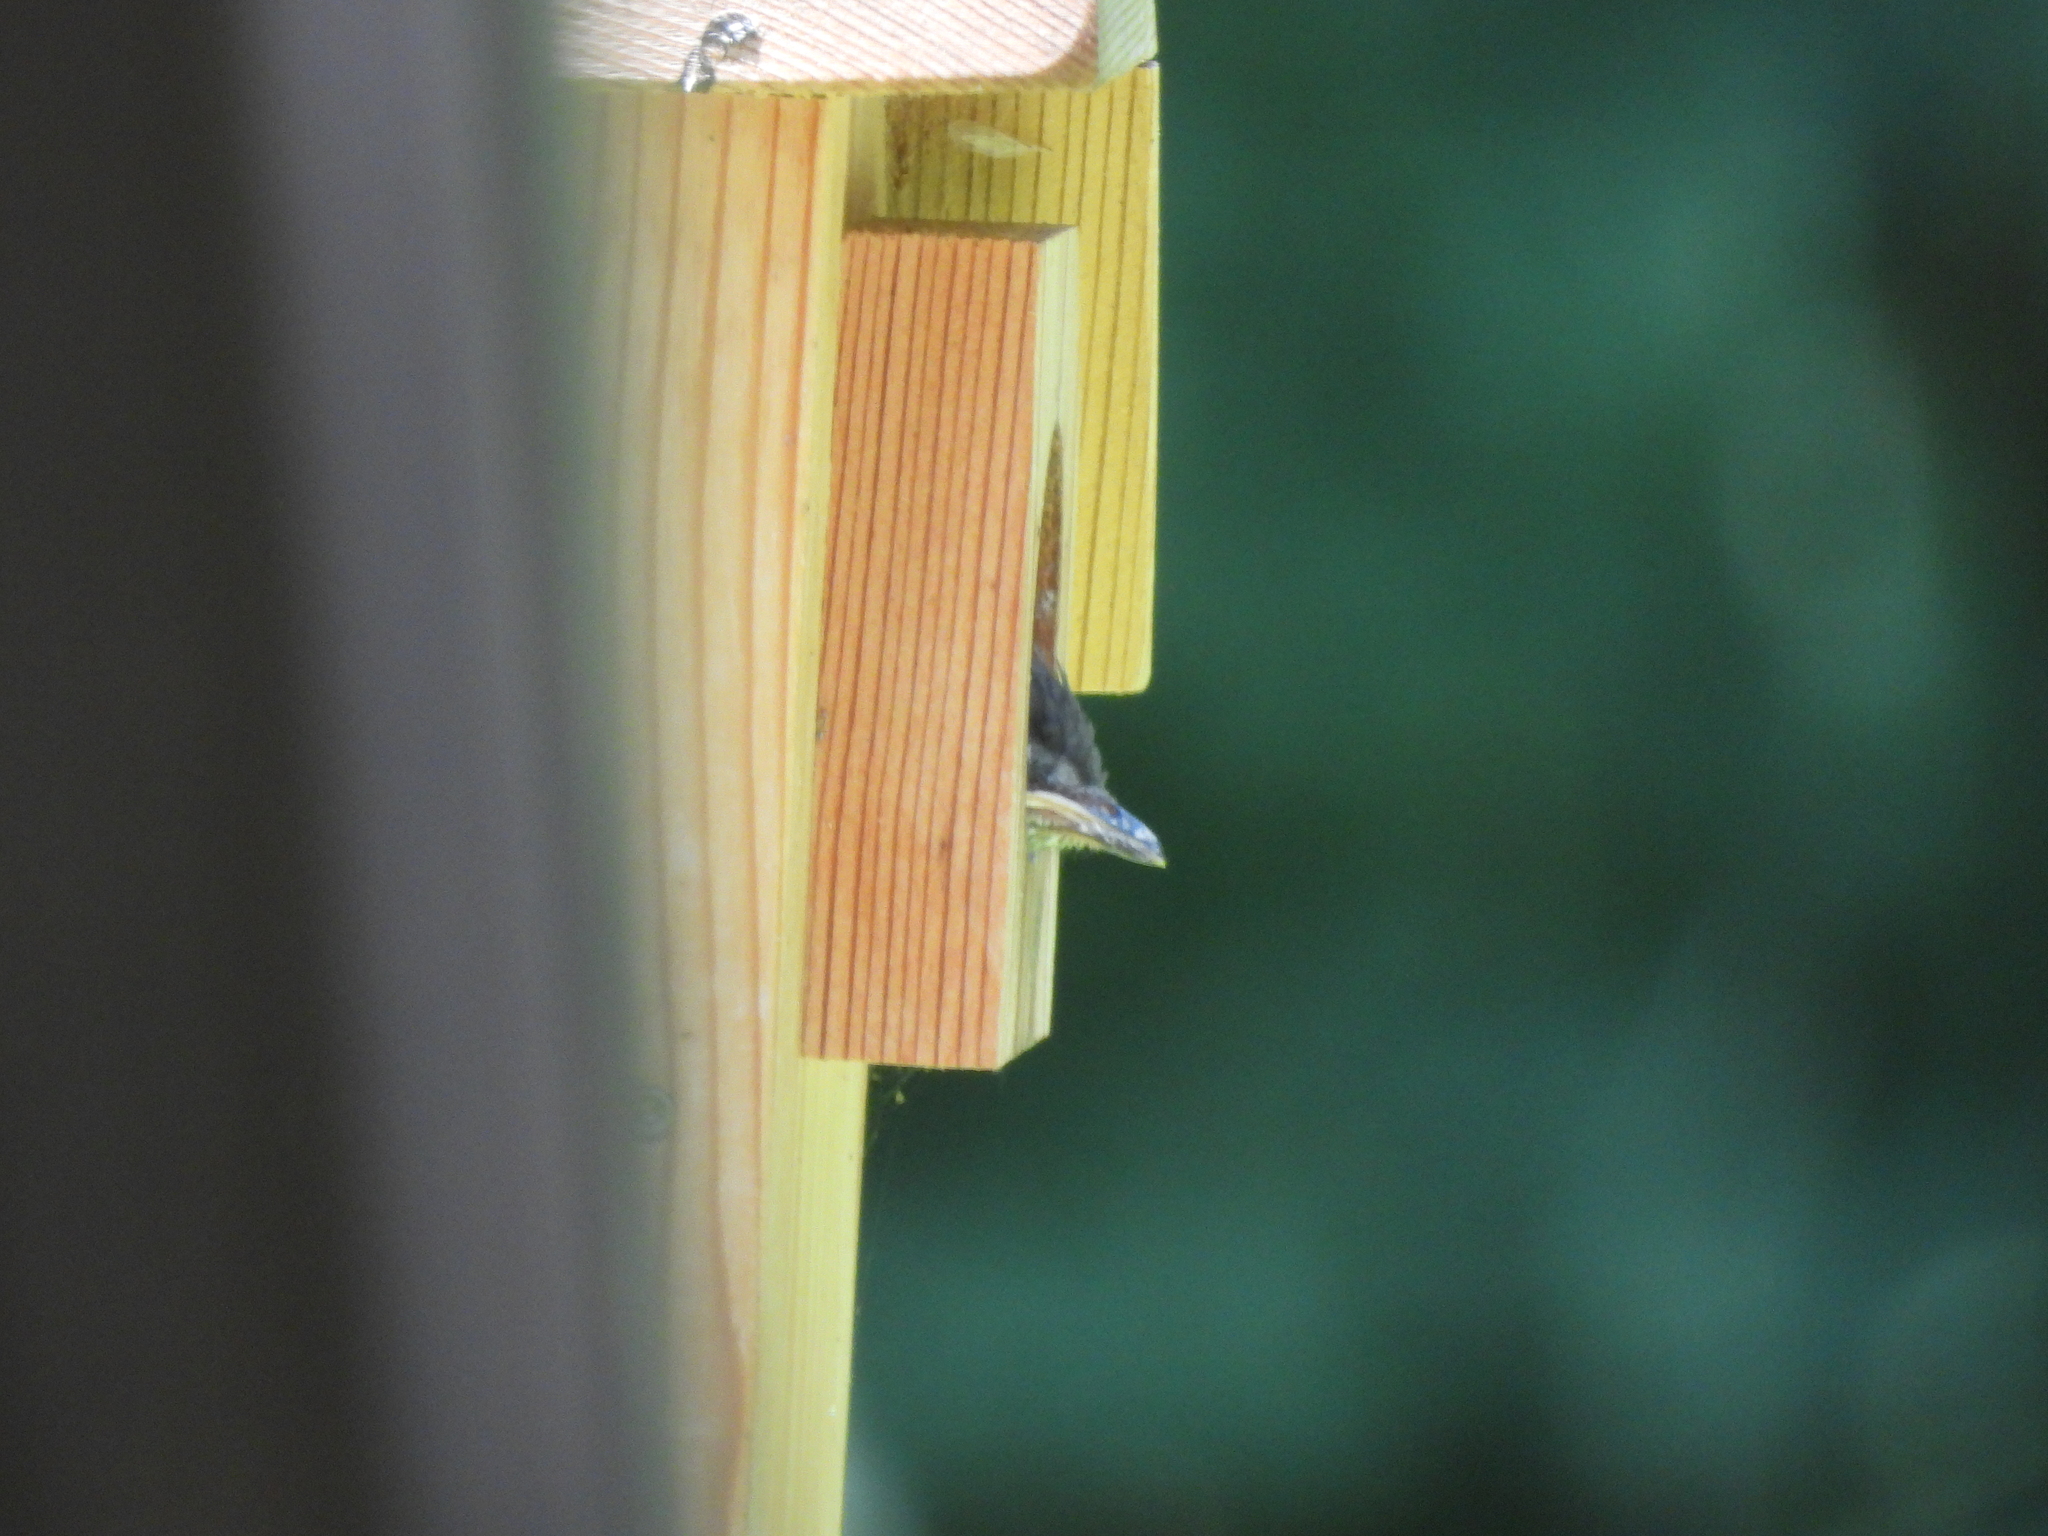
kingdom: Animalia
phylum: Chordata
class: Aves
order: Passeriformes
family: Turdidae
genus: Sialia
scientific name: Sialia sialis
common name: Eastern bluebird
